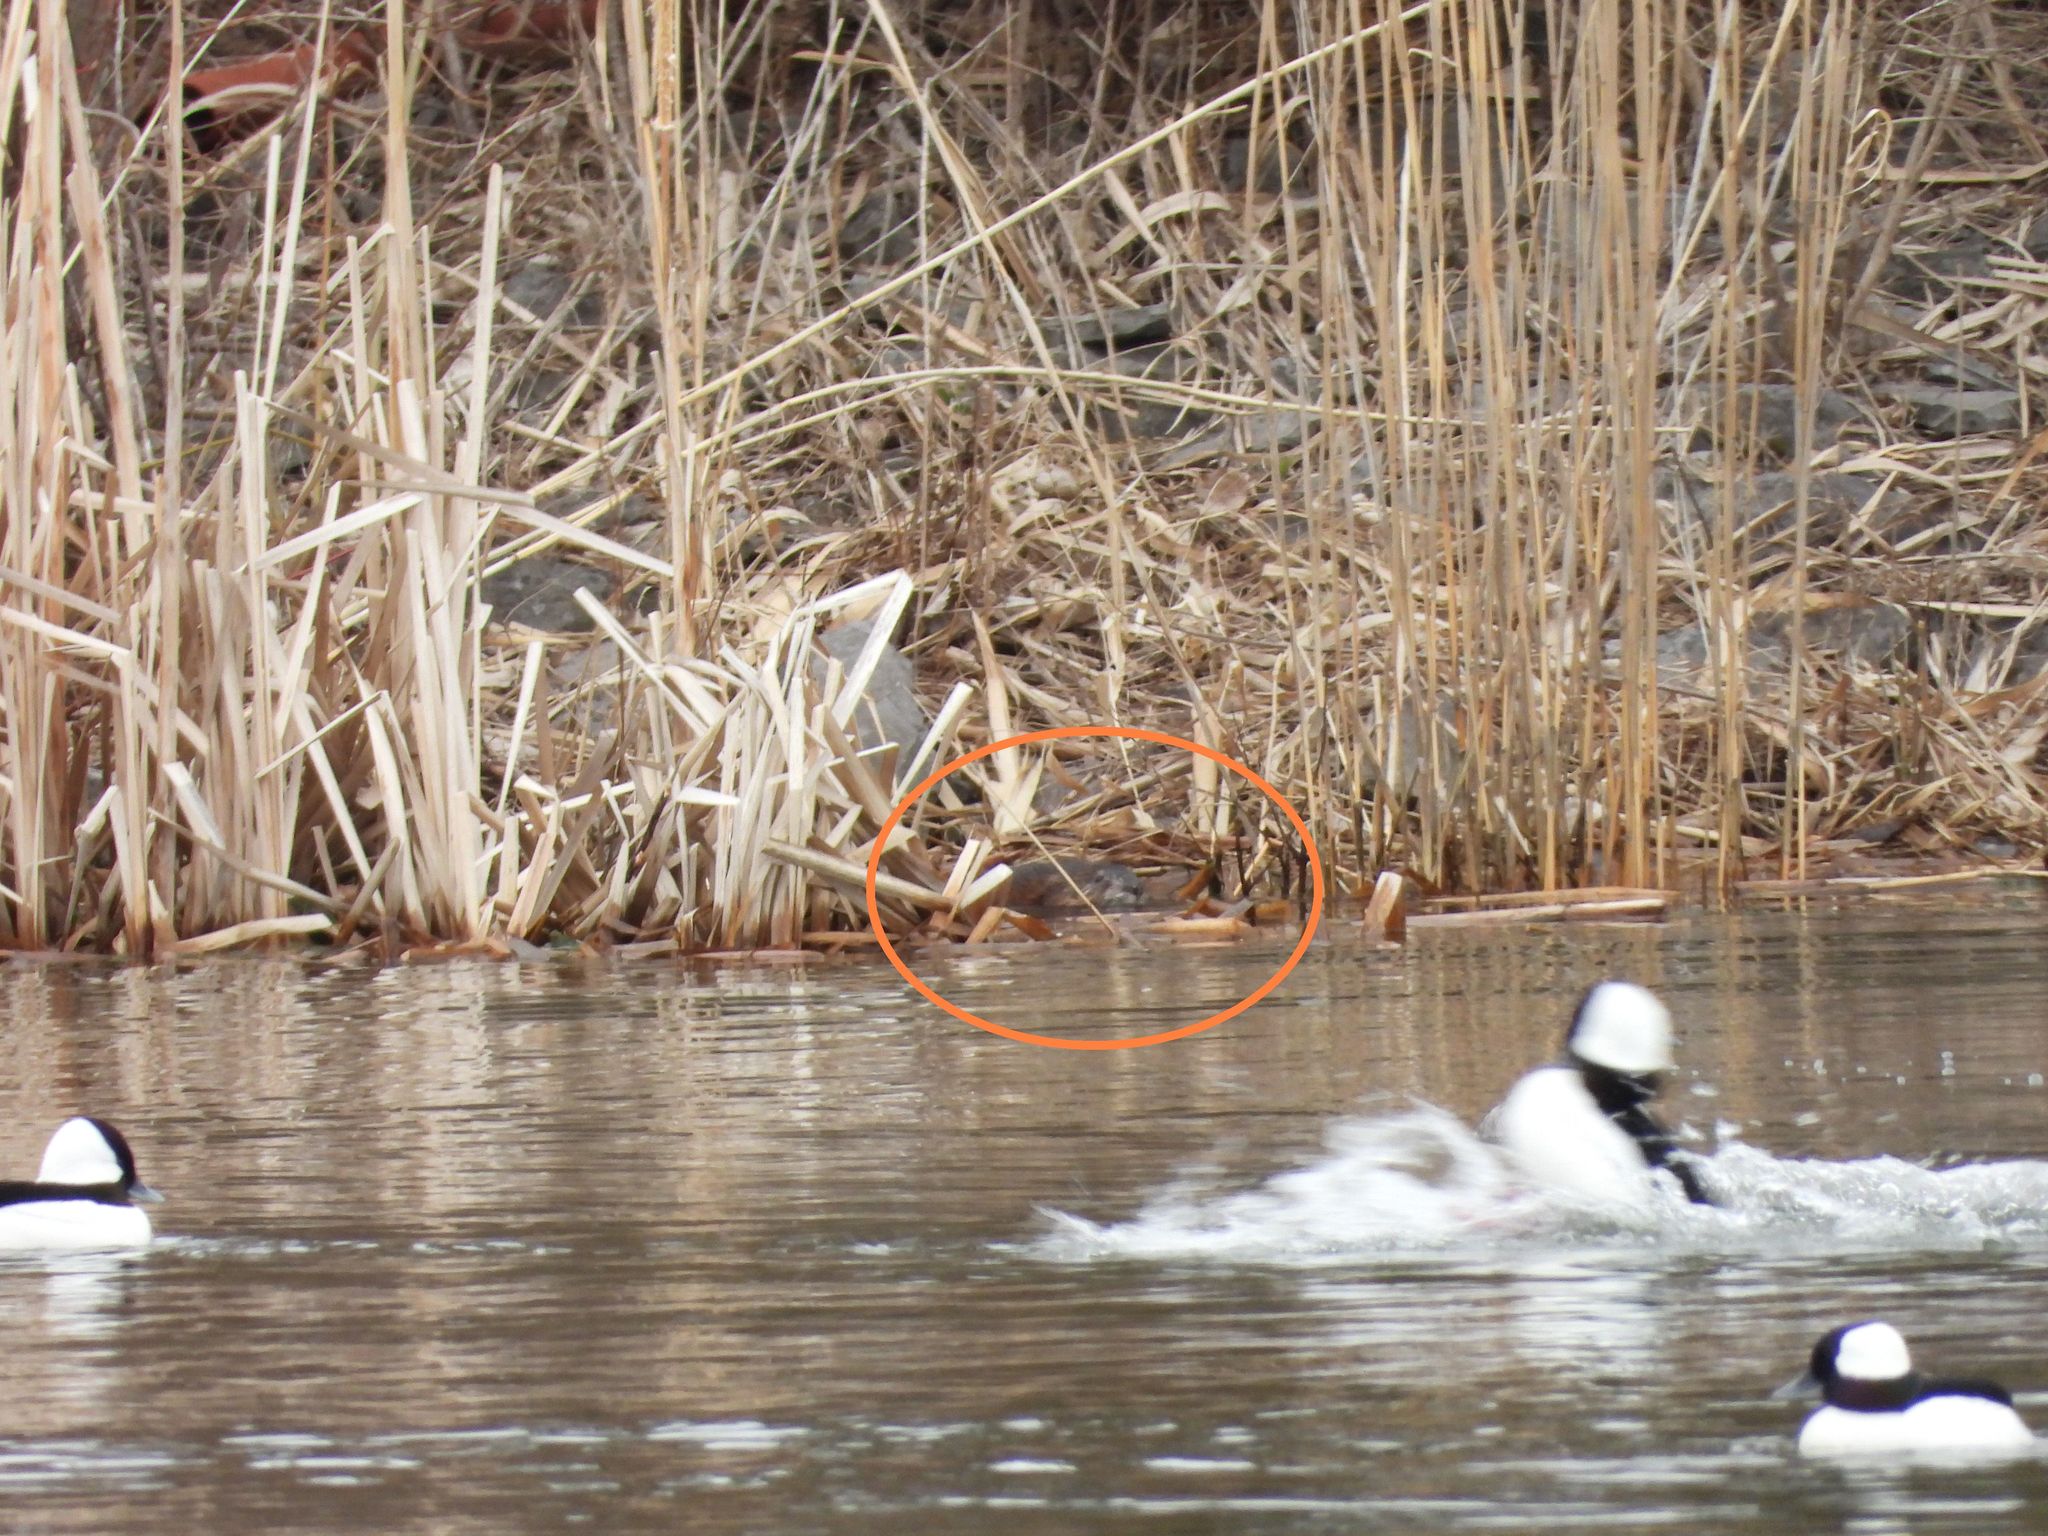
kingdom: Animalia
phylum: Chordata
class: Mammalia
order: Rodentia
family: Cricetidae
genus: Ondatra
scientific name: Ondatra zibethicus
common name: Muskrat
